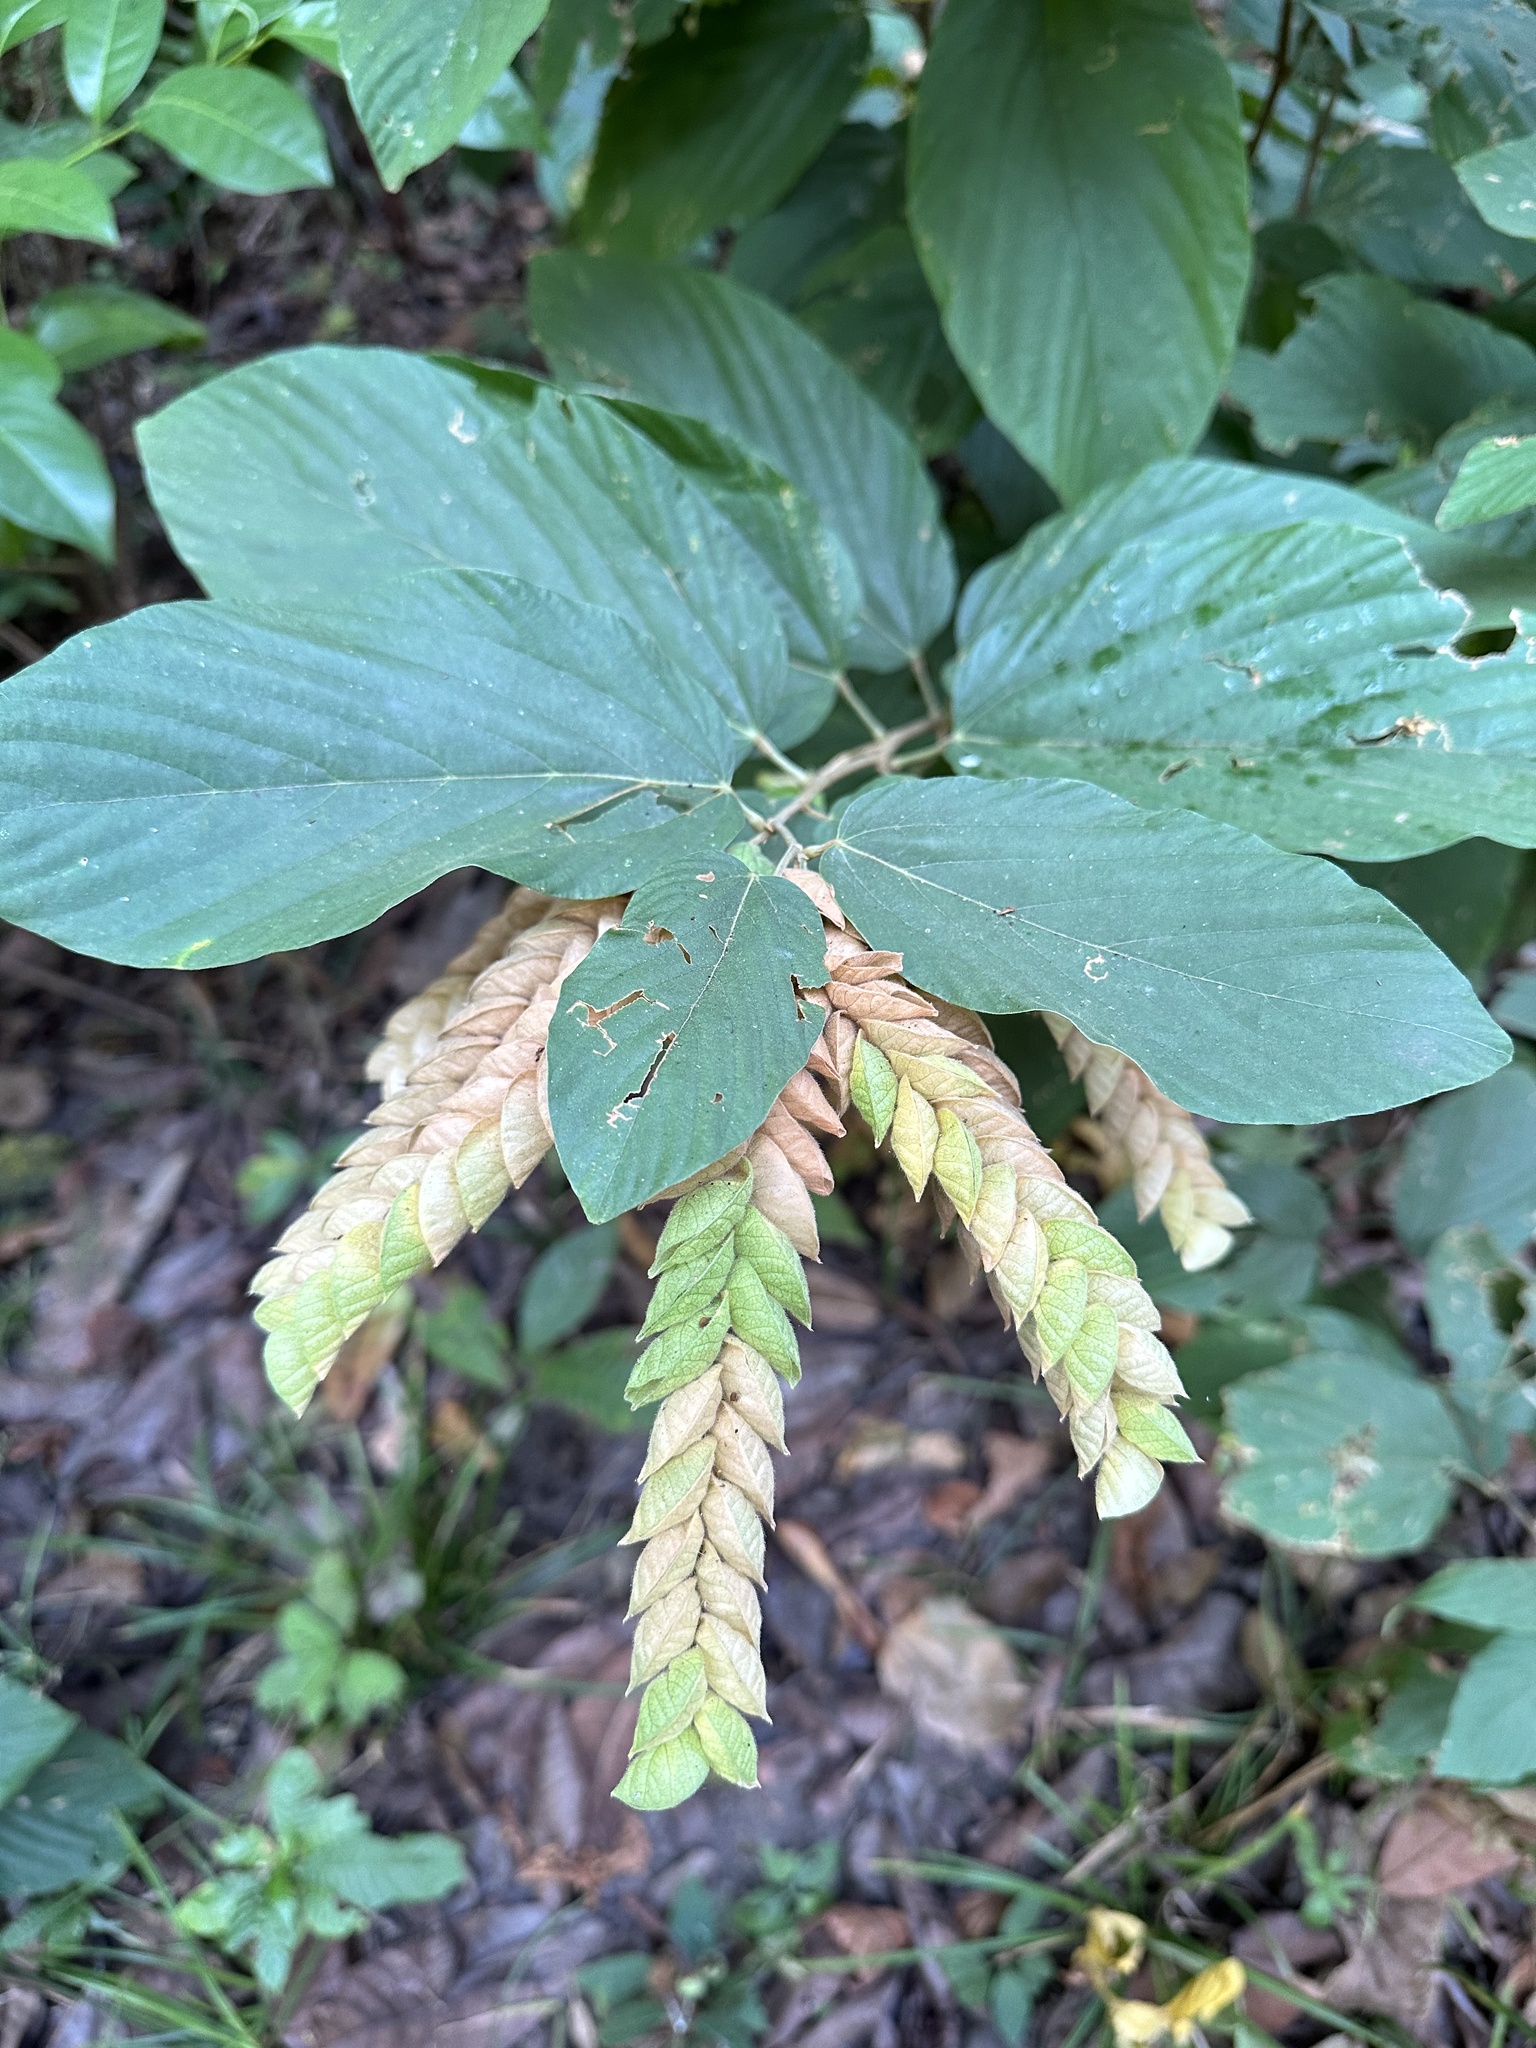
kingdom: Plantae
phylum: Tracheophyta
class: Magnoliopsida
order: Fabales
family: Fabaceae
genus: Flemingia
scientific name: Flemingia strobilifera
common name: Wild hops
